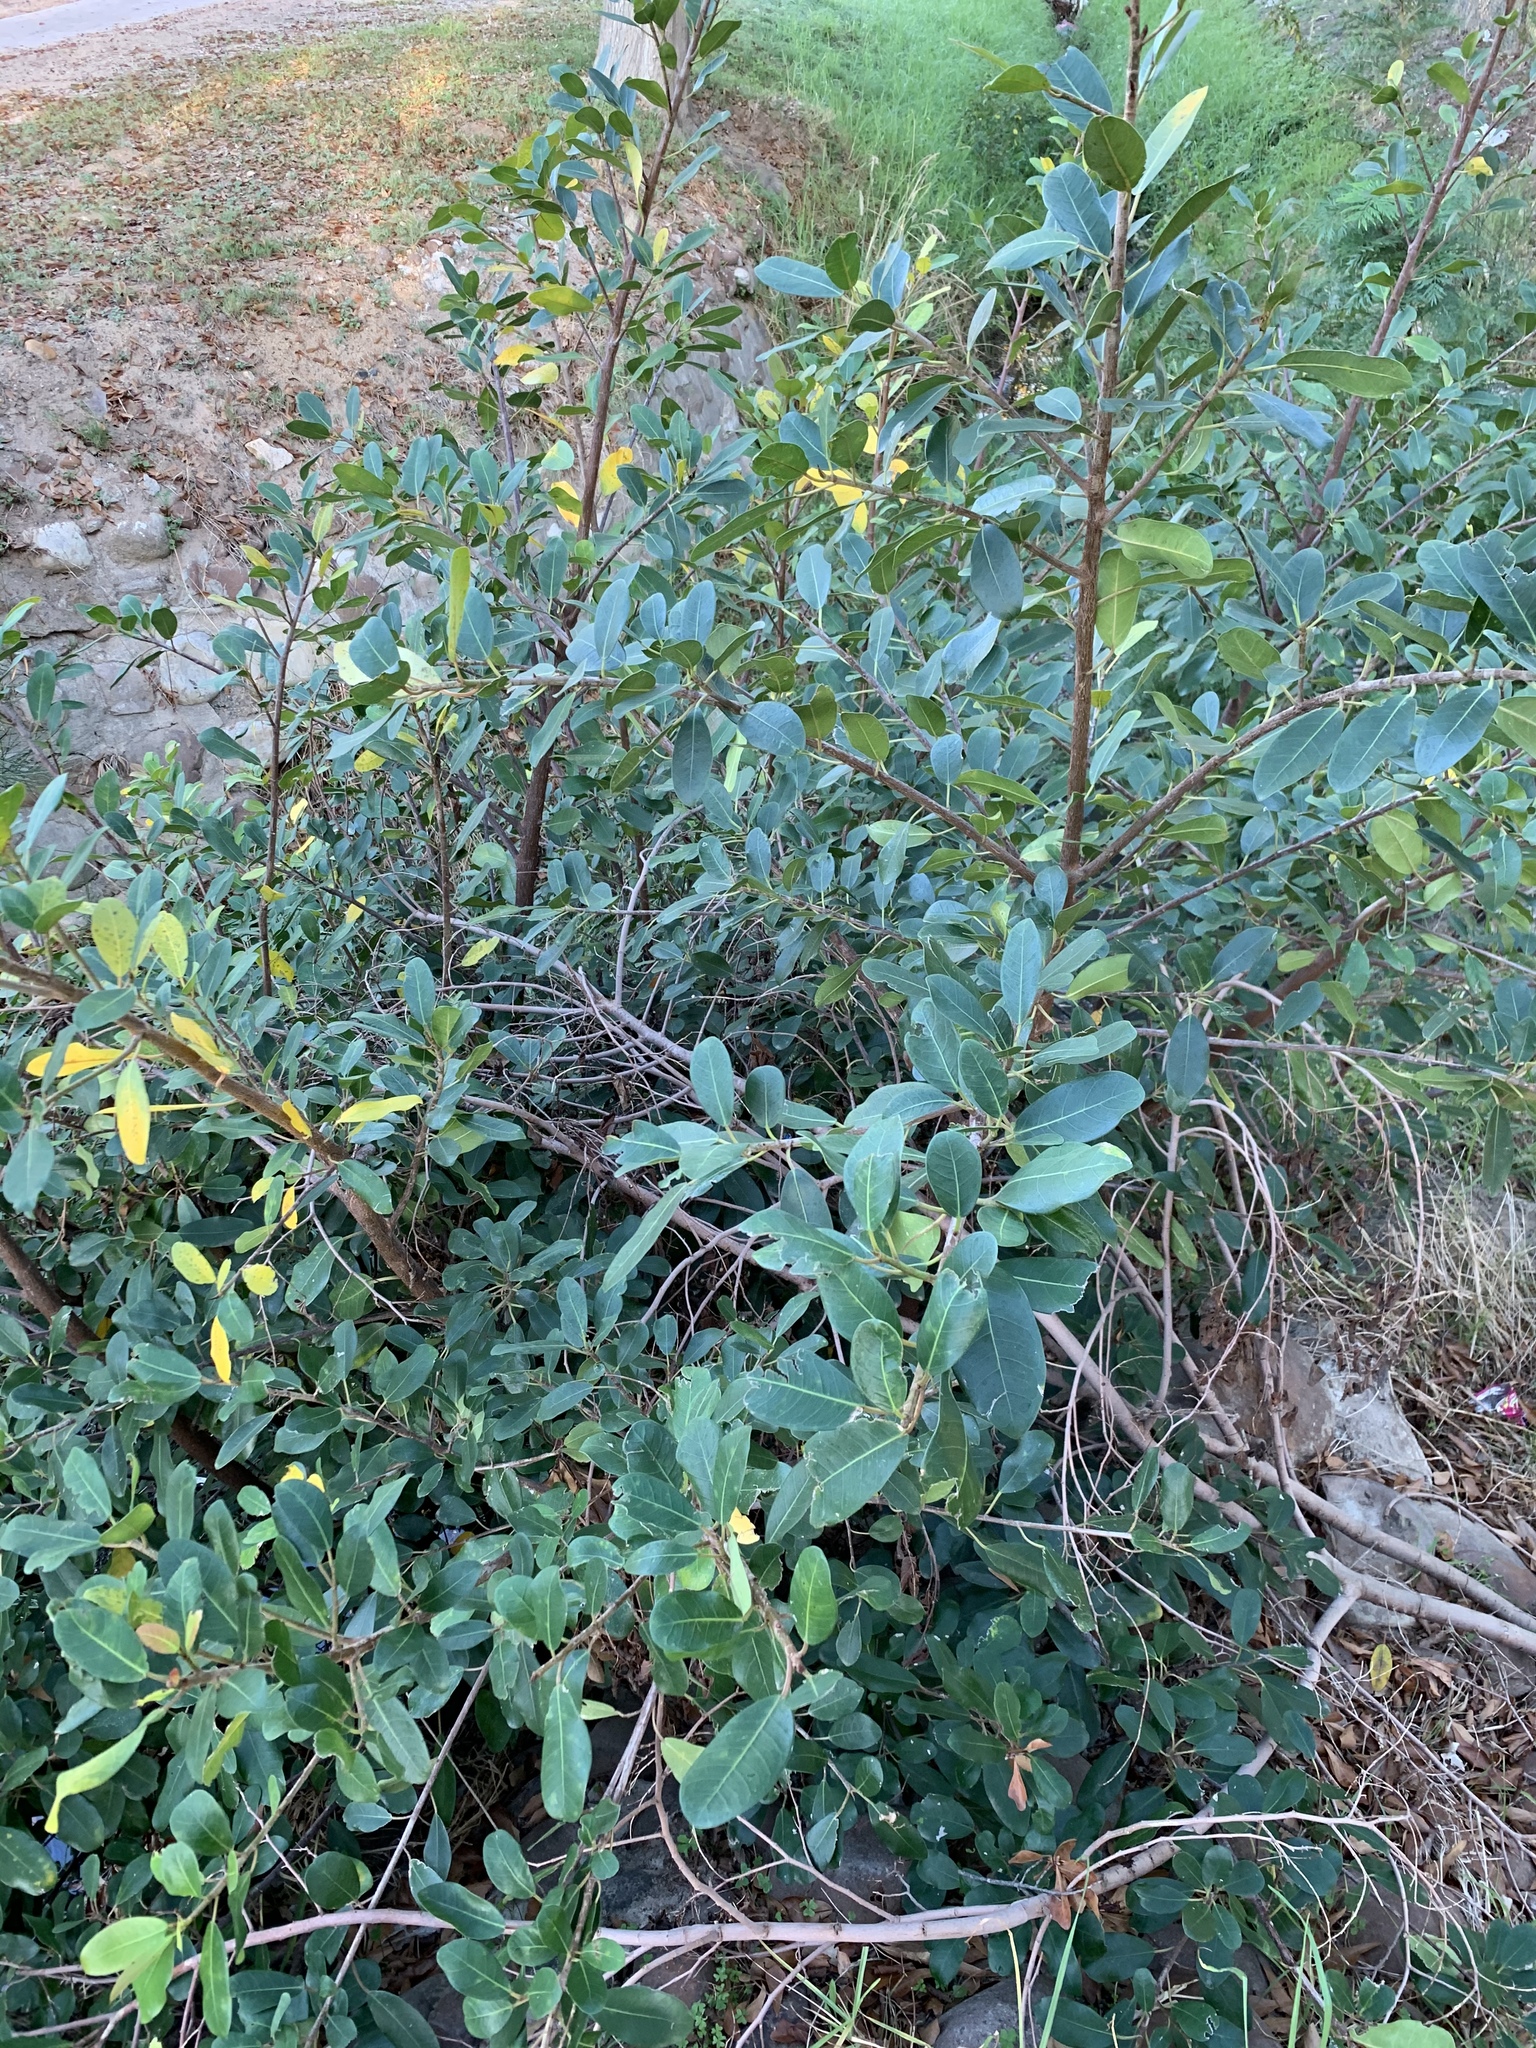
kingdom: Plantae
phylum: Tracheophyta
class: Magnoliopsida
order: Rosales
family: Moraceae
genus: Ficus
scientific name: Ficus thonningii
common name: Fig
